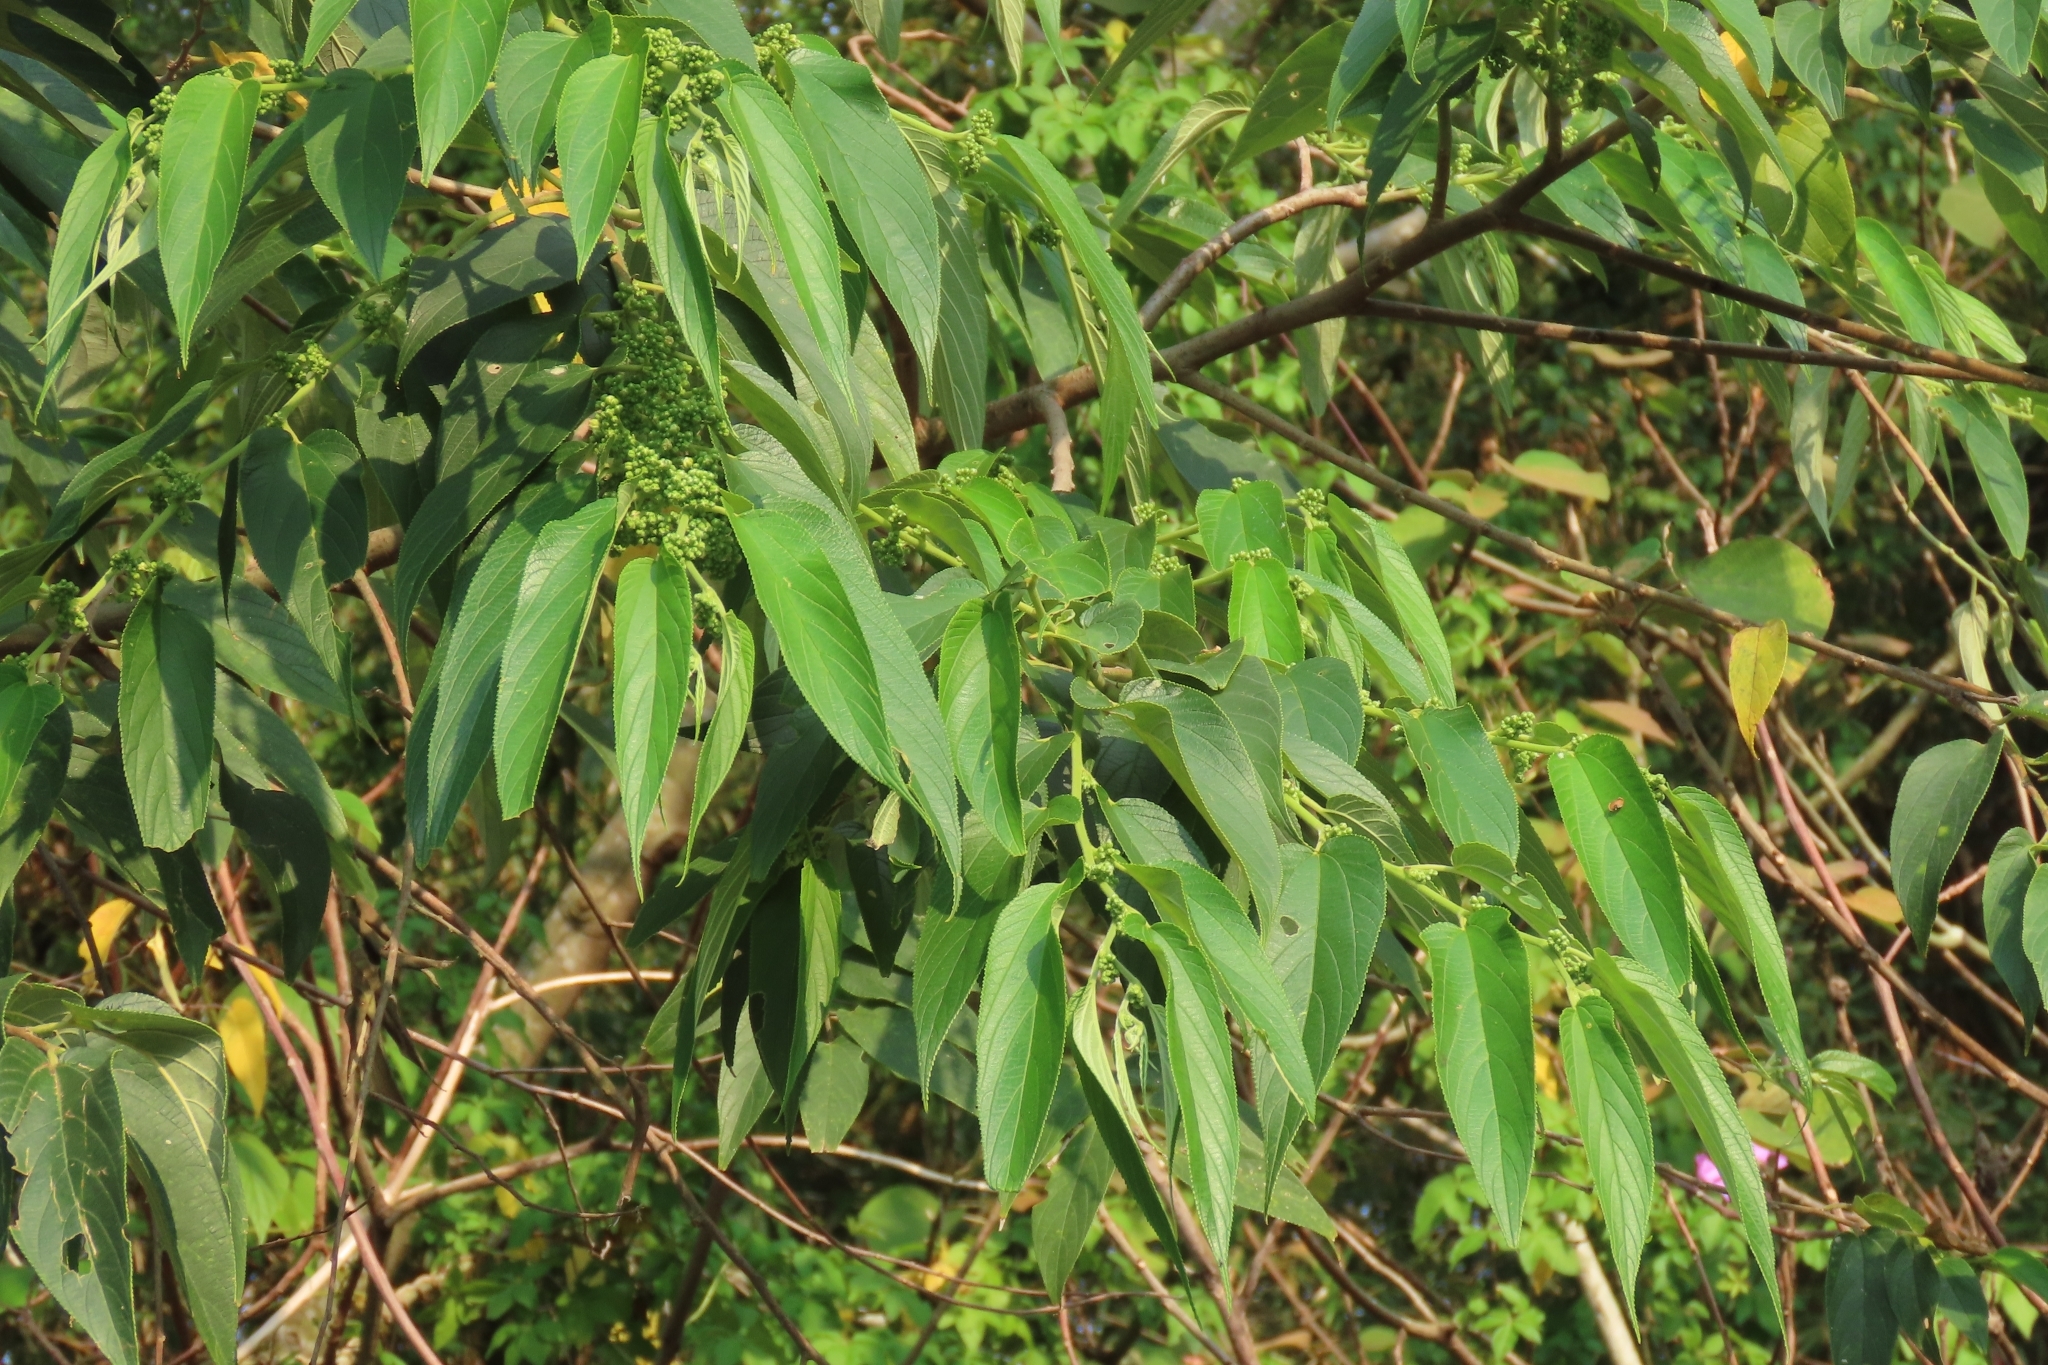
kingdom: Plantae
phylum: Tracheophyta
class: Magnoliopsida
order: Rosales
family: Cannabaceae
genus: Trema
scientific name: Trema orientale
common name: Indian charcoal tree
